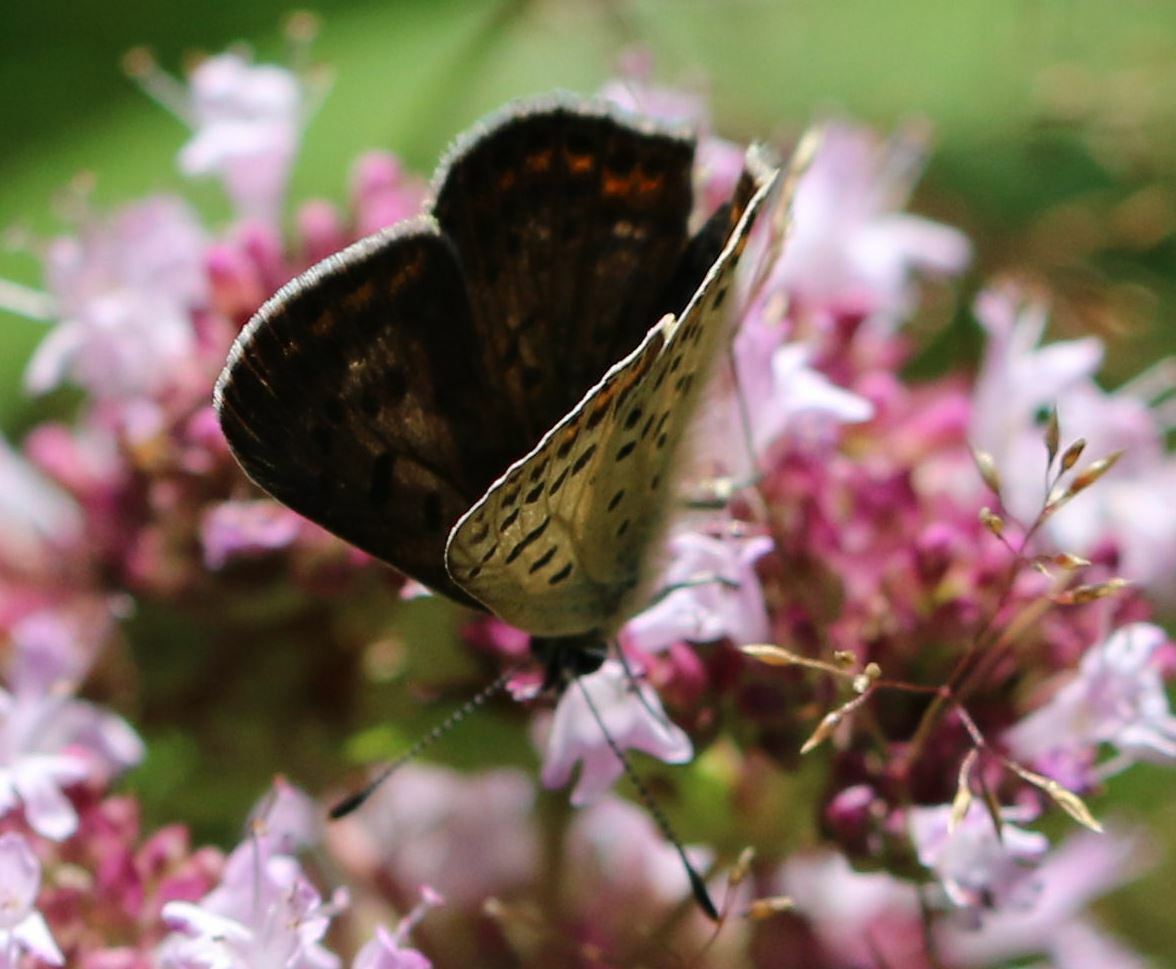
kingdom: Animalia
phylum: Arthropoda
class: Insecta
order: Lepidoptera
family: Lycaenidae
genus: Loweia
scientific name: Loweia tityrus
